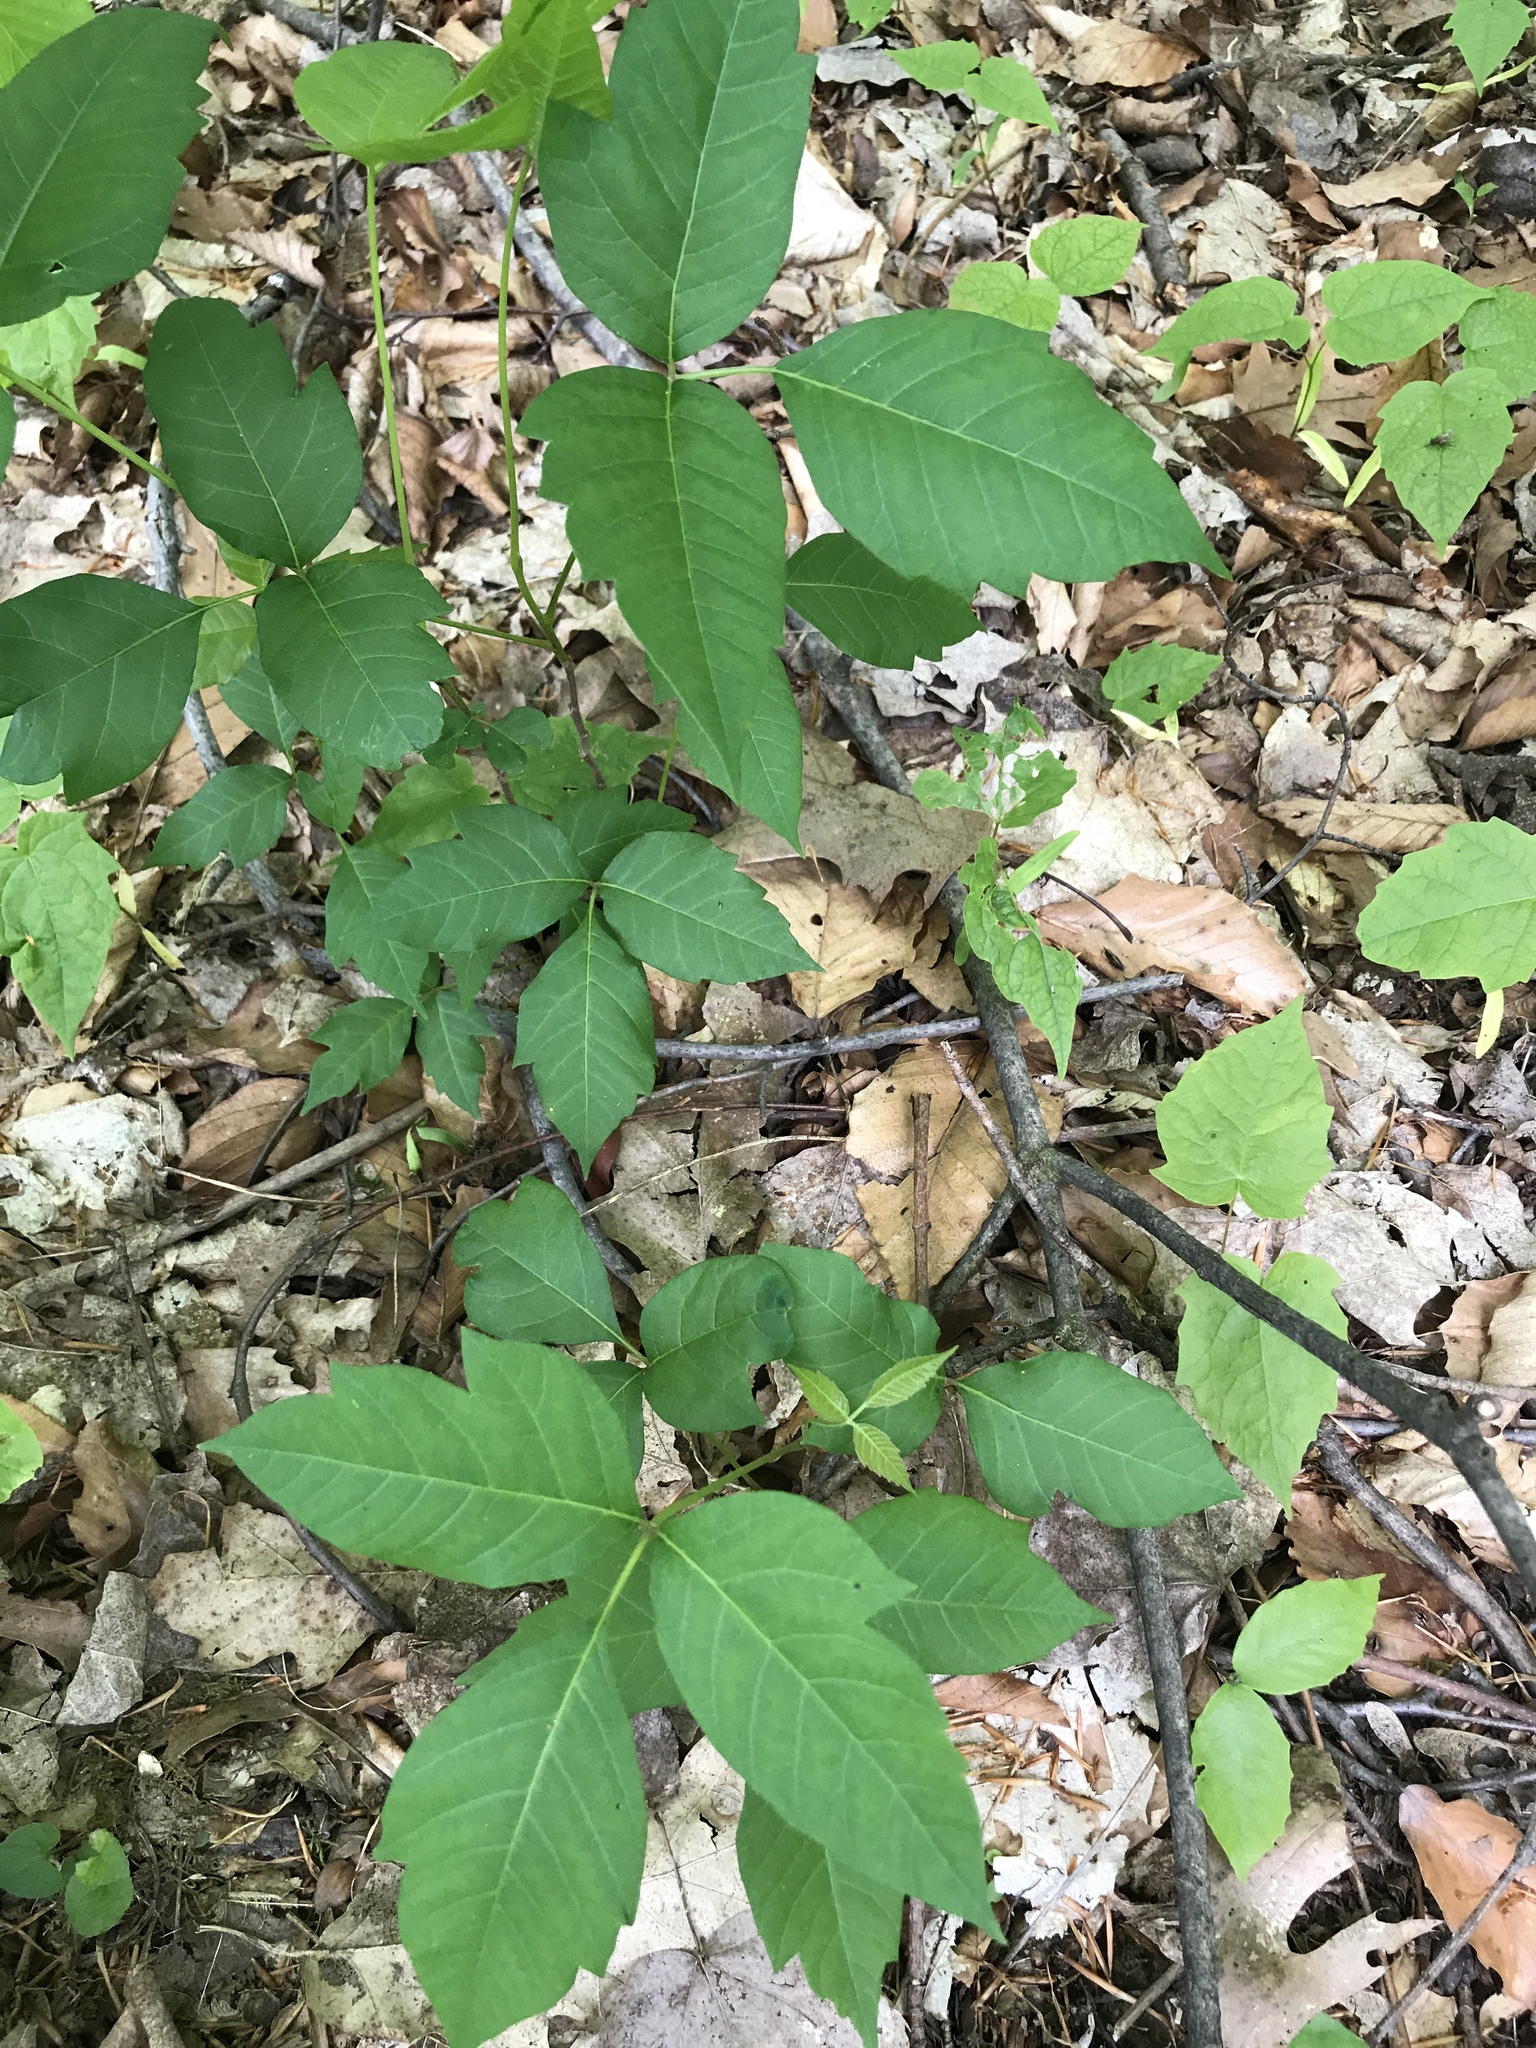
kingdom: Plantae
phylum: Tracheophyta
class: Magnoliopsida
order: Sapindales
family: Anacardiaceae
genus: Toxicodendron
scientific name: Toxicodendron radicans
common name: Poison ivy
